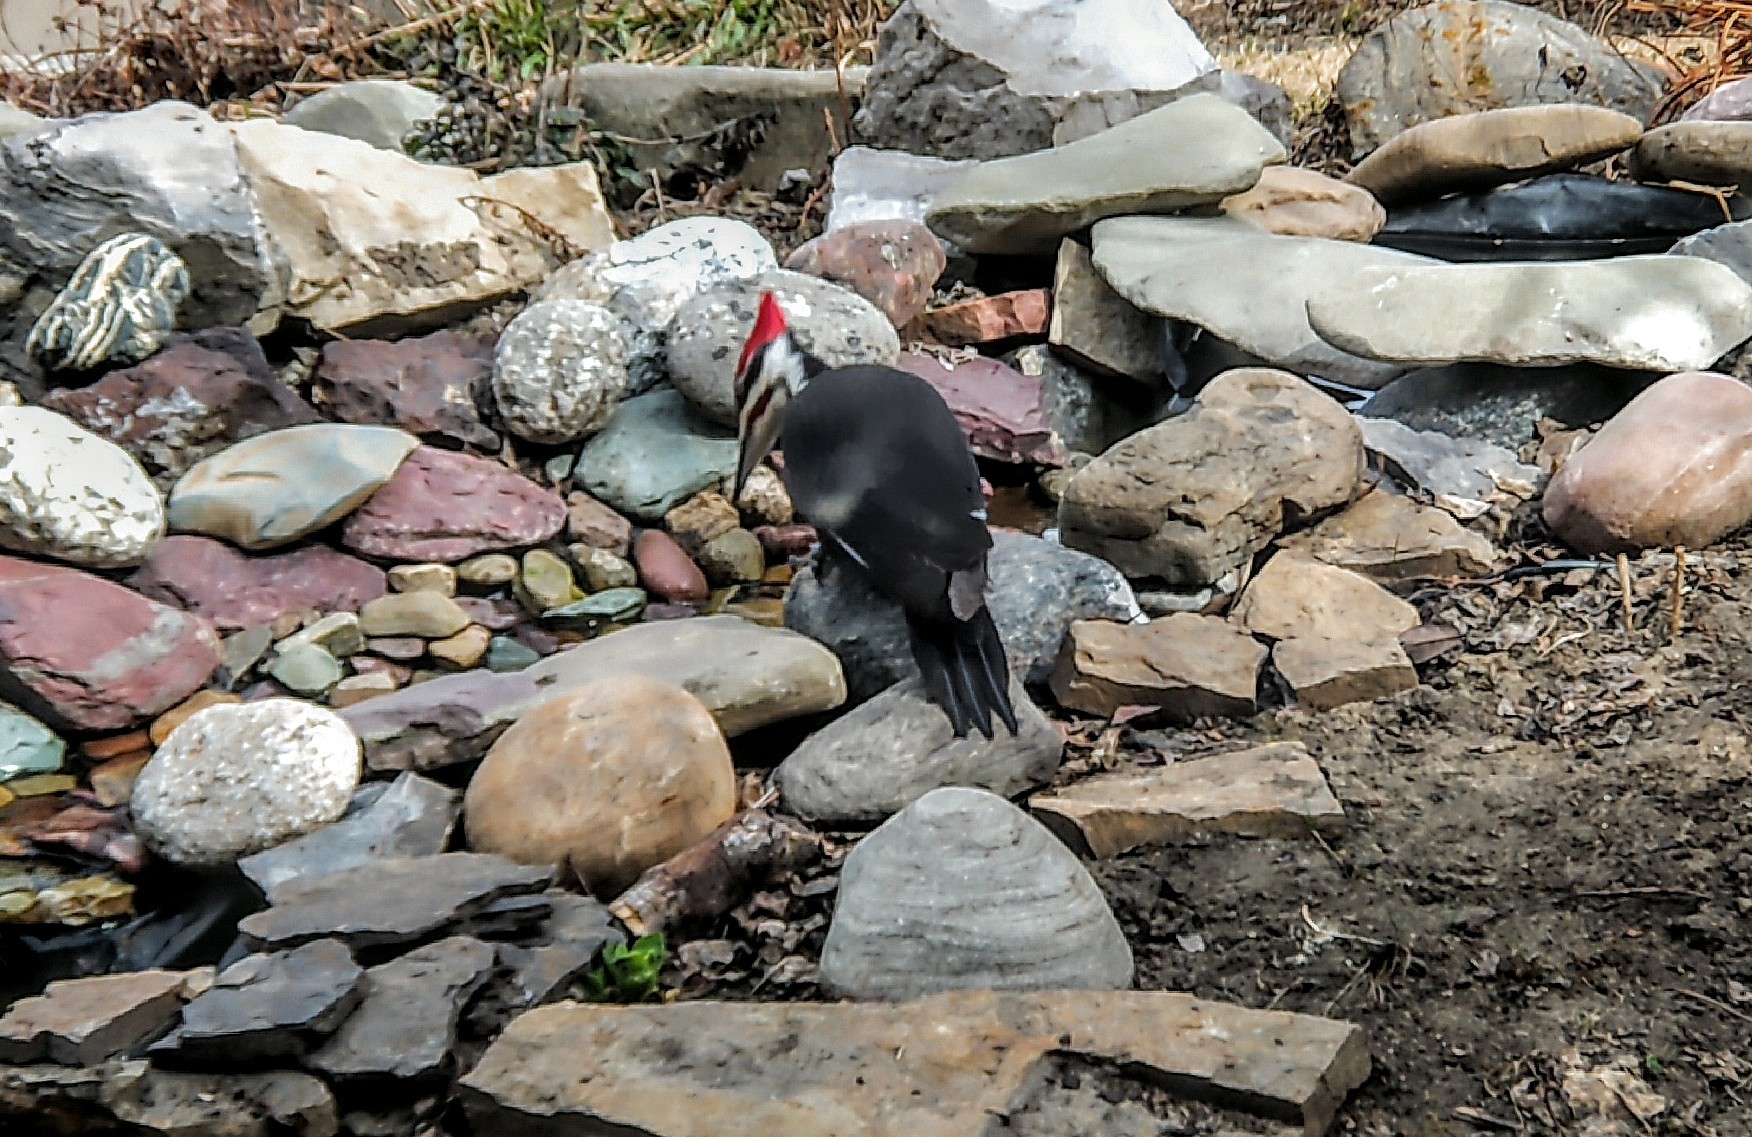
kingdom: Animalia
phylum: Chordata
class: Aves
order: Piciformes
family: Picidae
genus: Dryocopus
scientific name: Dryocopus pileatus
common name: Pileated woodpecker
